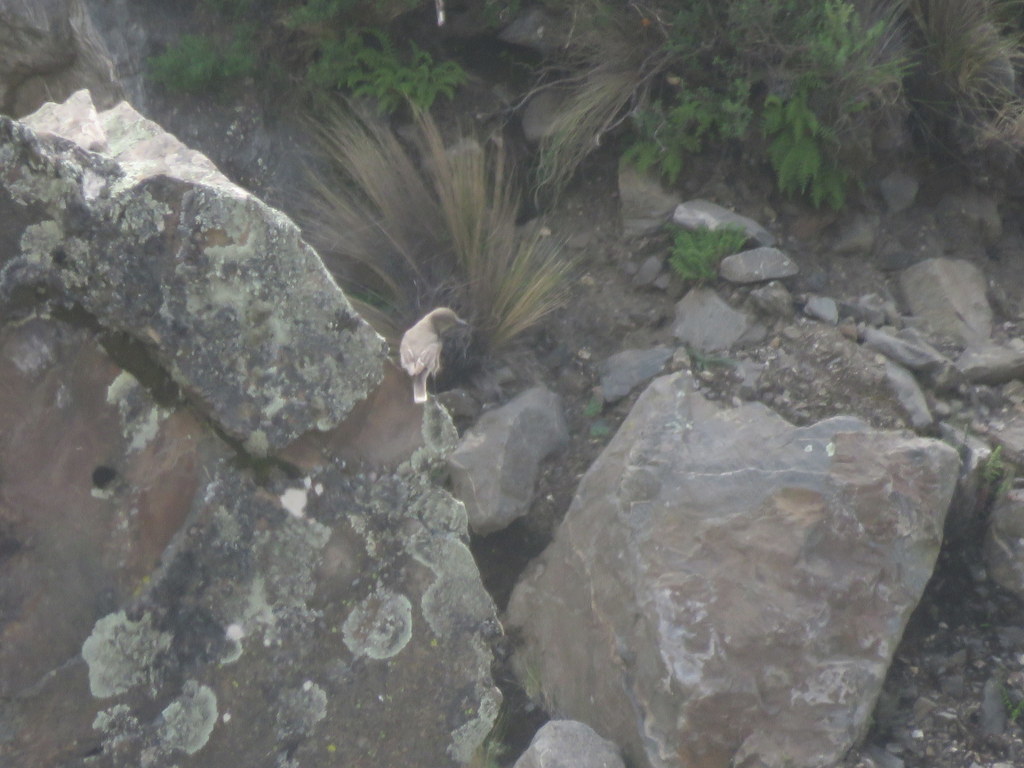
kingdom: Animalia
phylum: Chordata
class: Aves
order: Passeriformes
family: Tyrannidae
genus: Agriornis
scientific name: Agriornis montanus
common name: Black-billed shrike-tyrant
